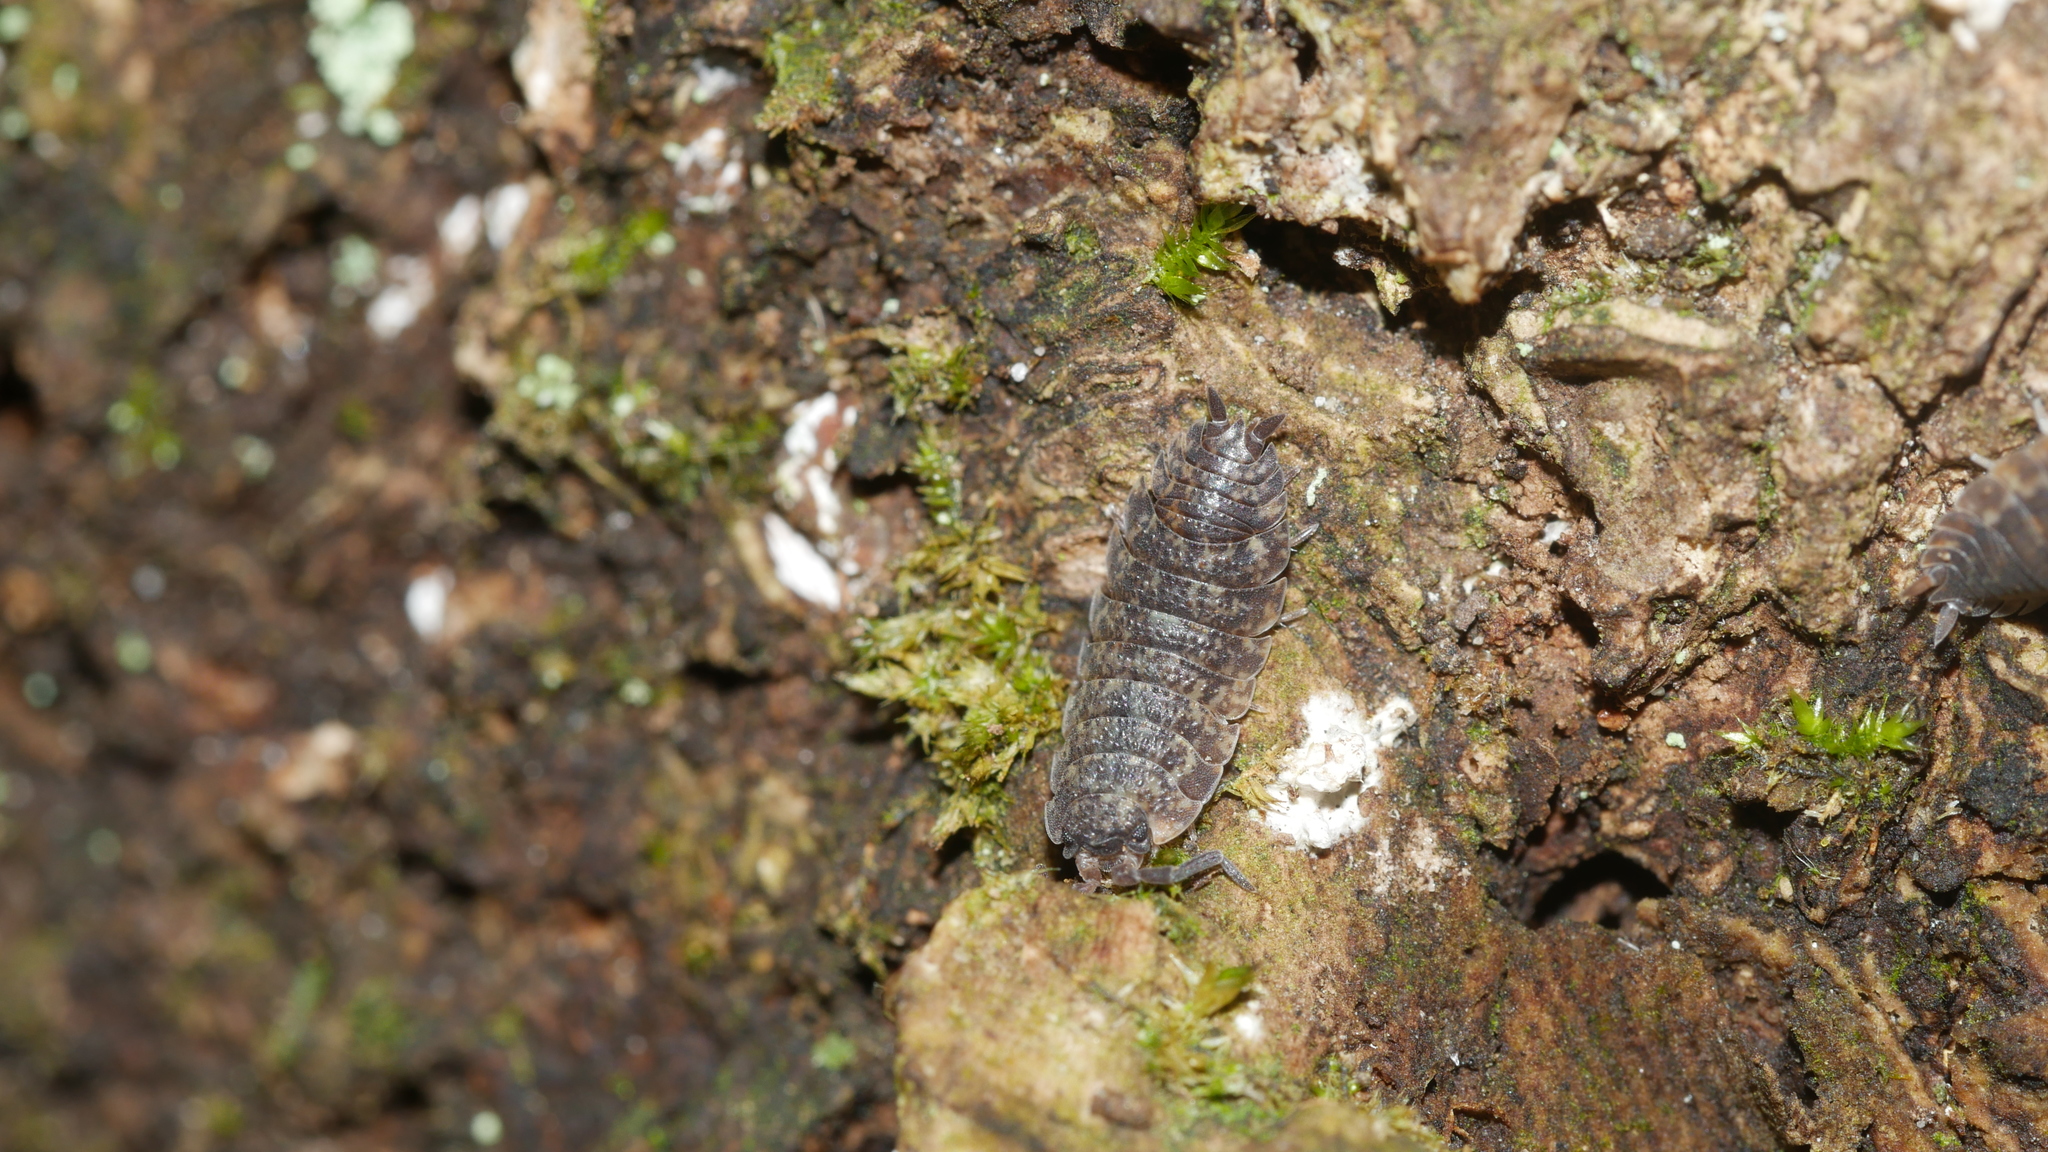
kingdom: Animalia
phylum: Arthropoda
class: Malacostraca
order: Isopoda
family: Porcellionidae
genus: Porcellio
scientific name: Porcellio scaber
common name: Common rough woodlouse
